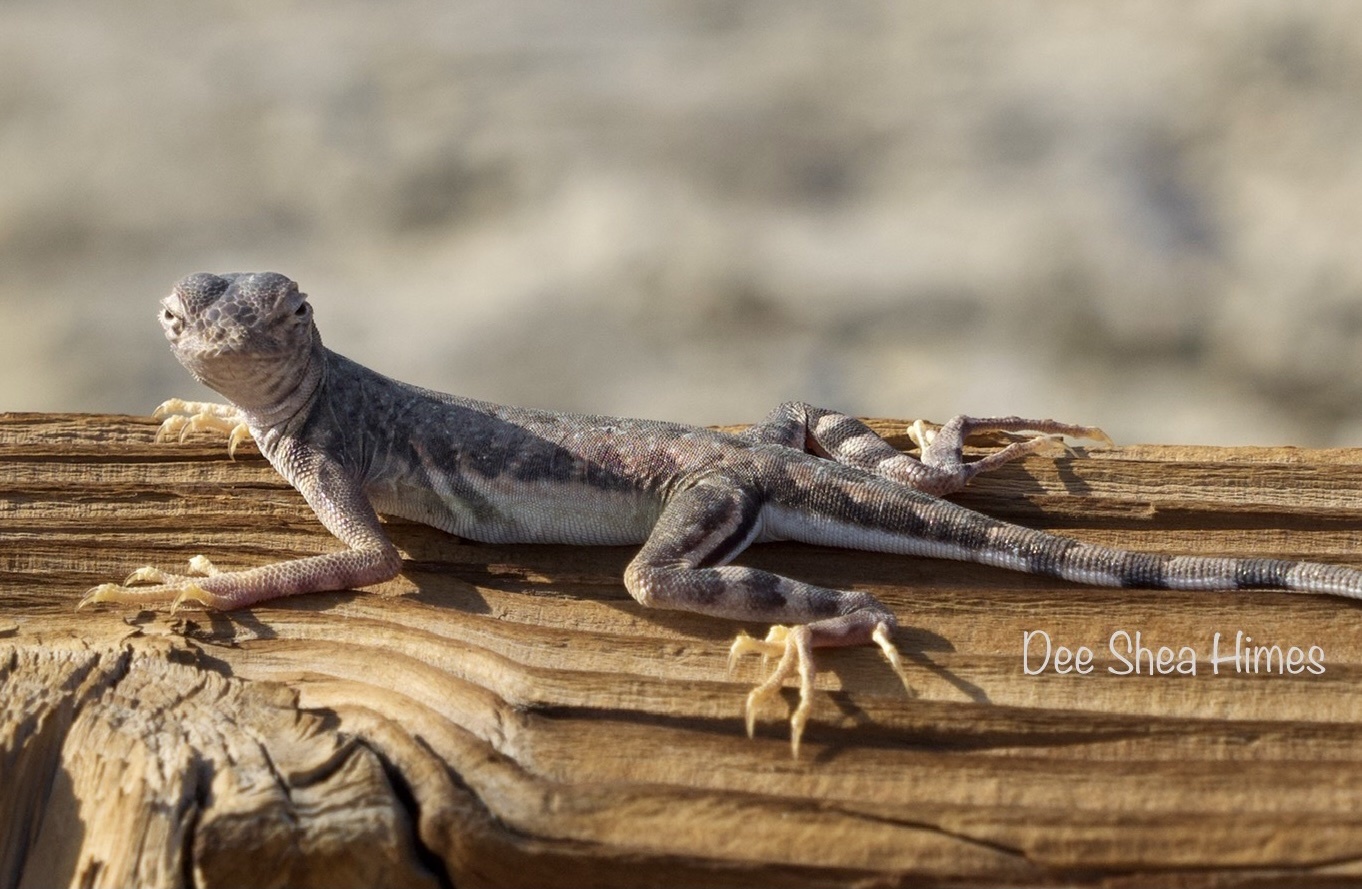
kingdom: Animalia
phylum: Chordata
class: Squamata
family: Phrynosomatidae
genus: Callisaurus
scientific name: Callisaurus draconoides
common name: Zebra-tailed lizard
